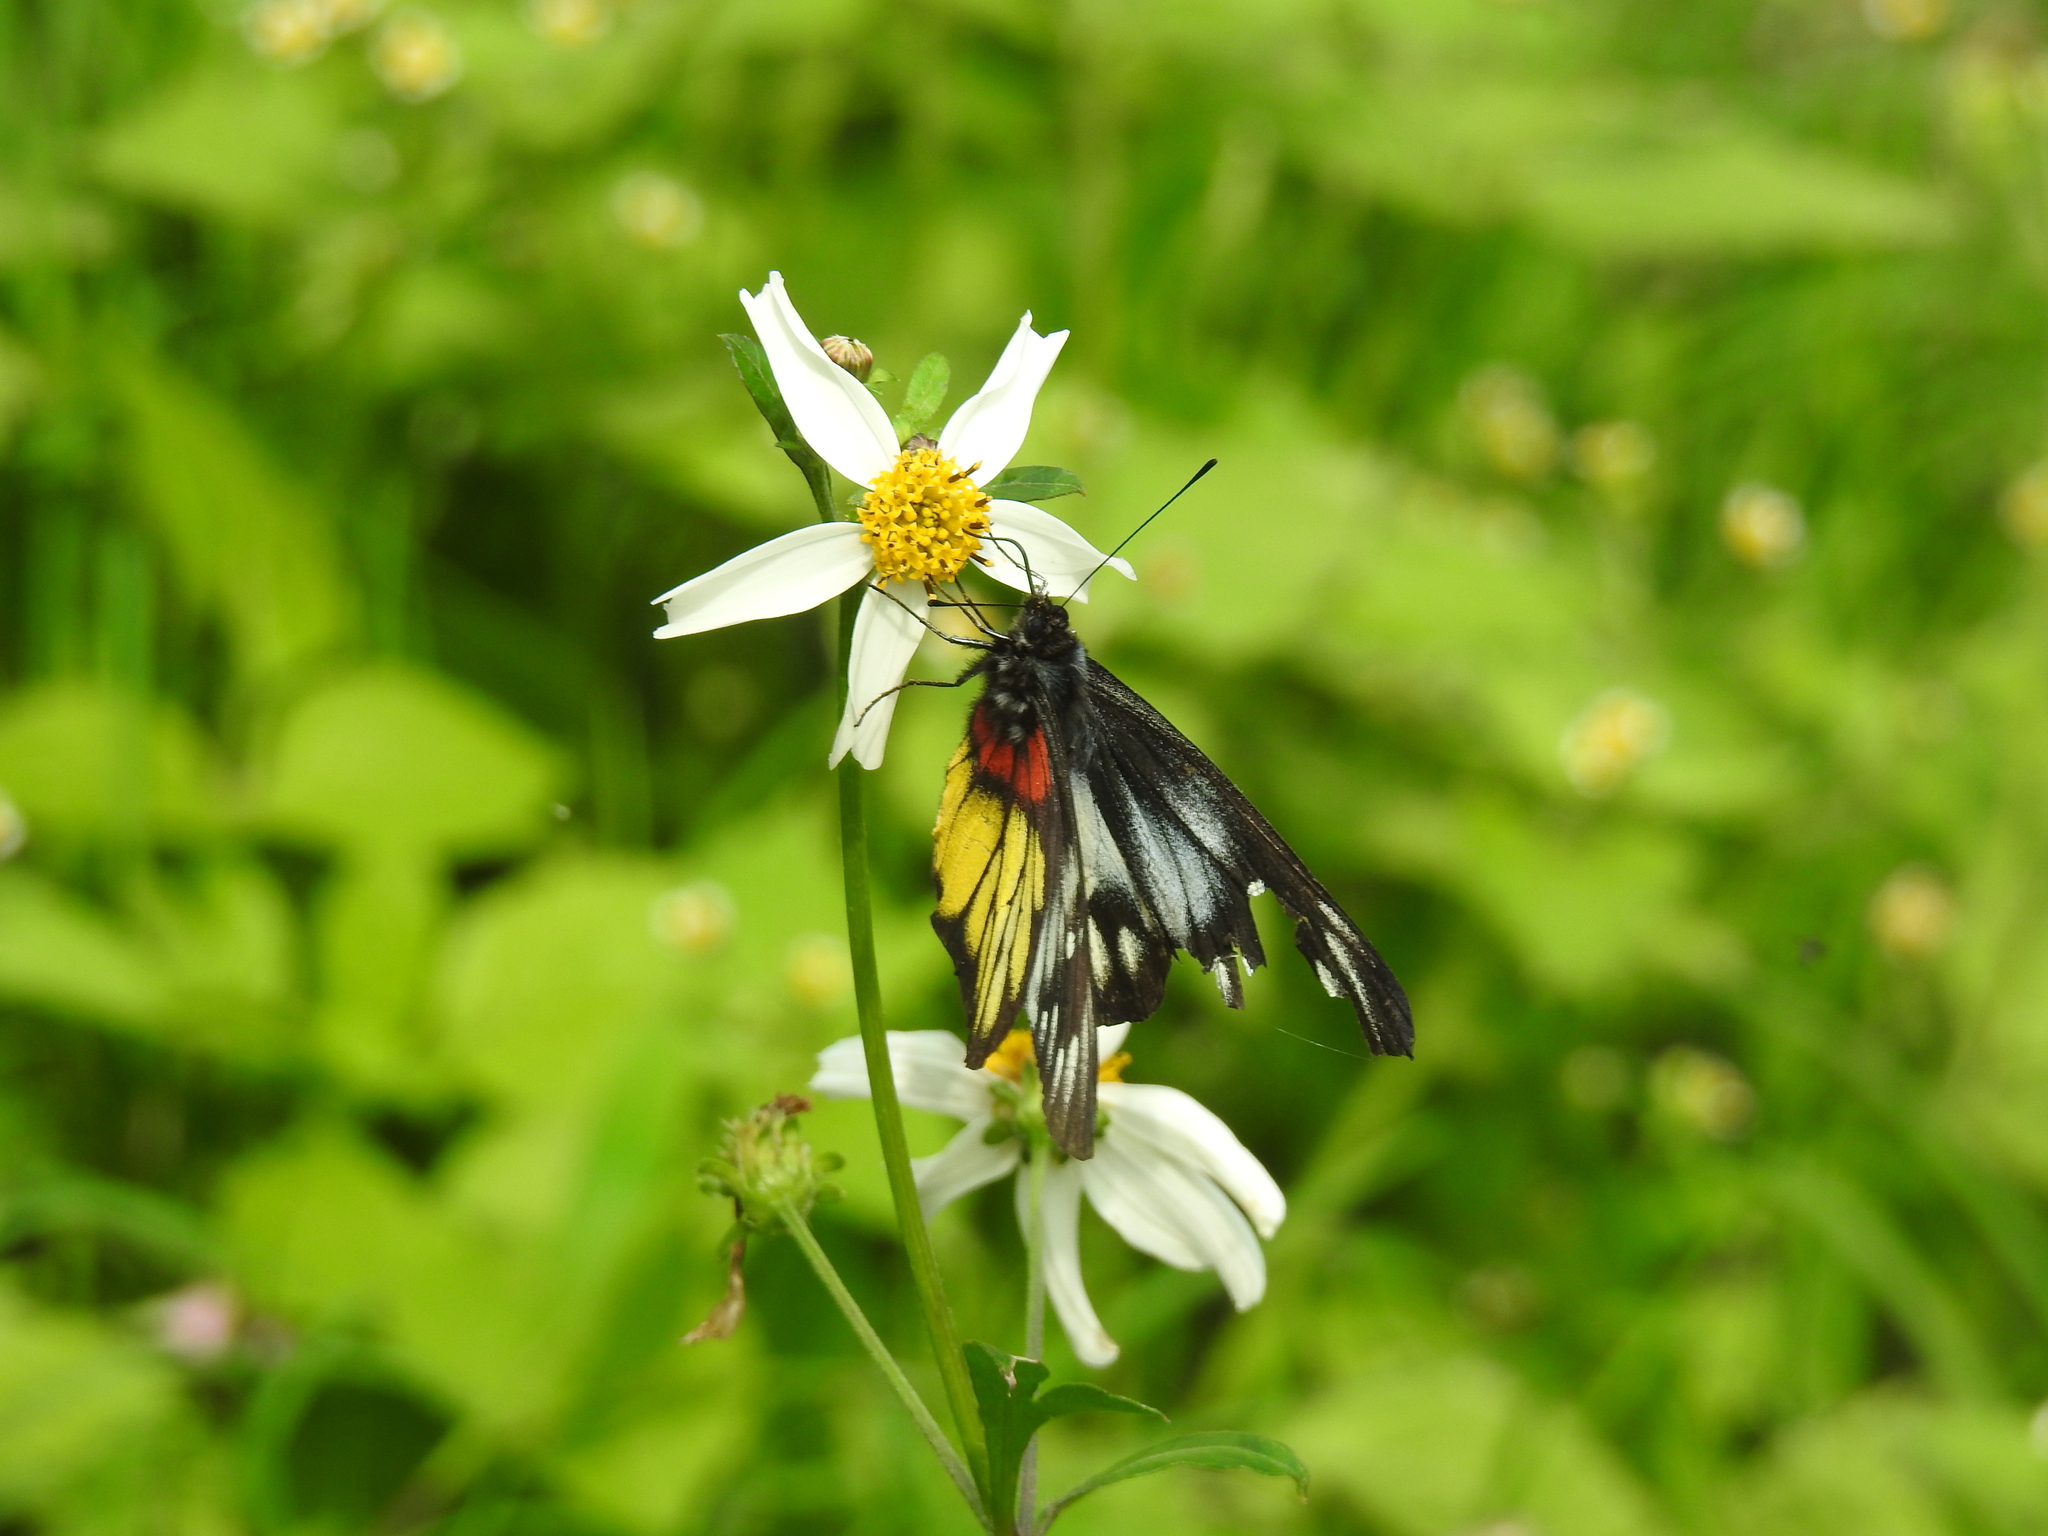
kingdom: Animalia
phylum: Arthropoda
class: Insecta
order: Lepidoptera
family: Pieridae
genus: Delias
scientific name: Delias pasithoe
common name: Red-base jezebel
